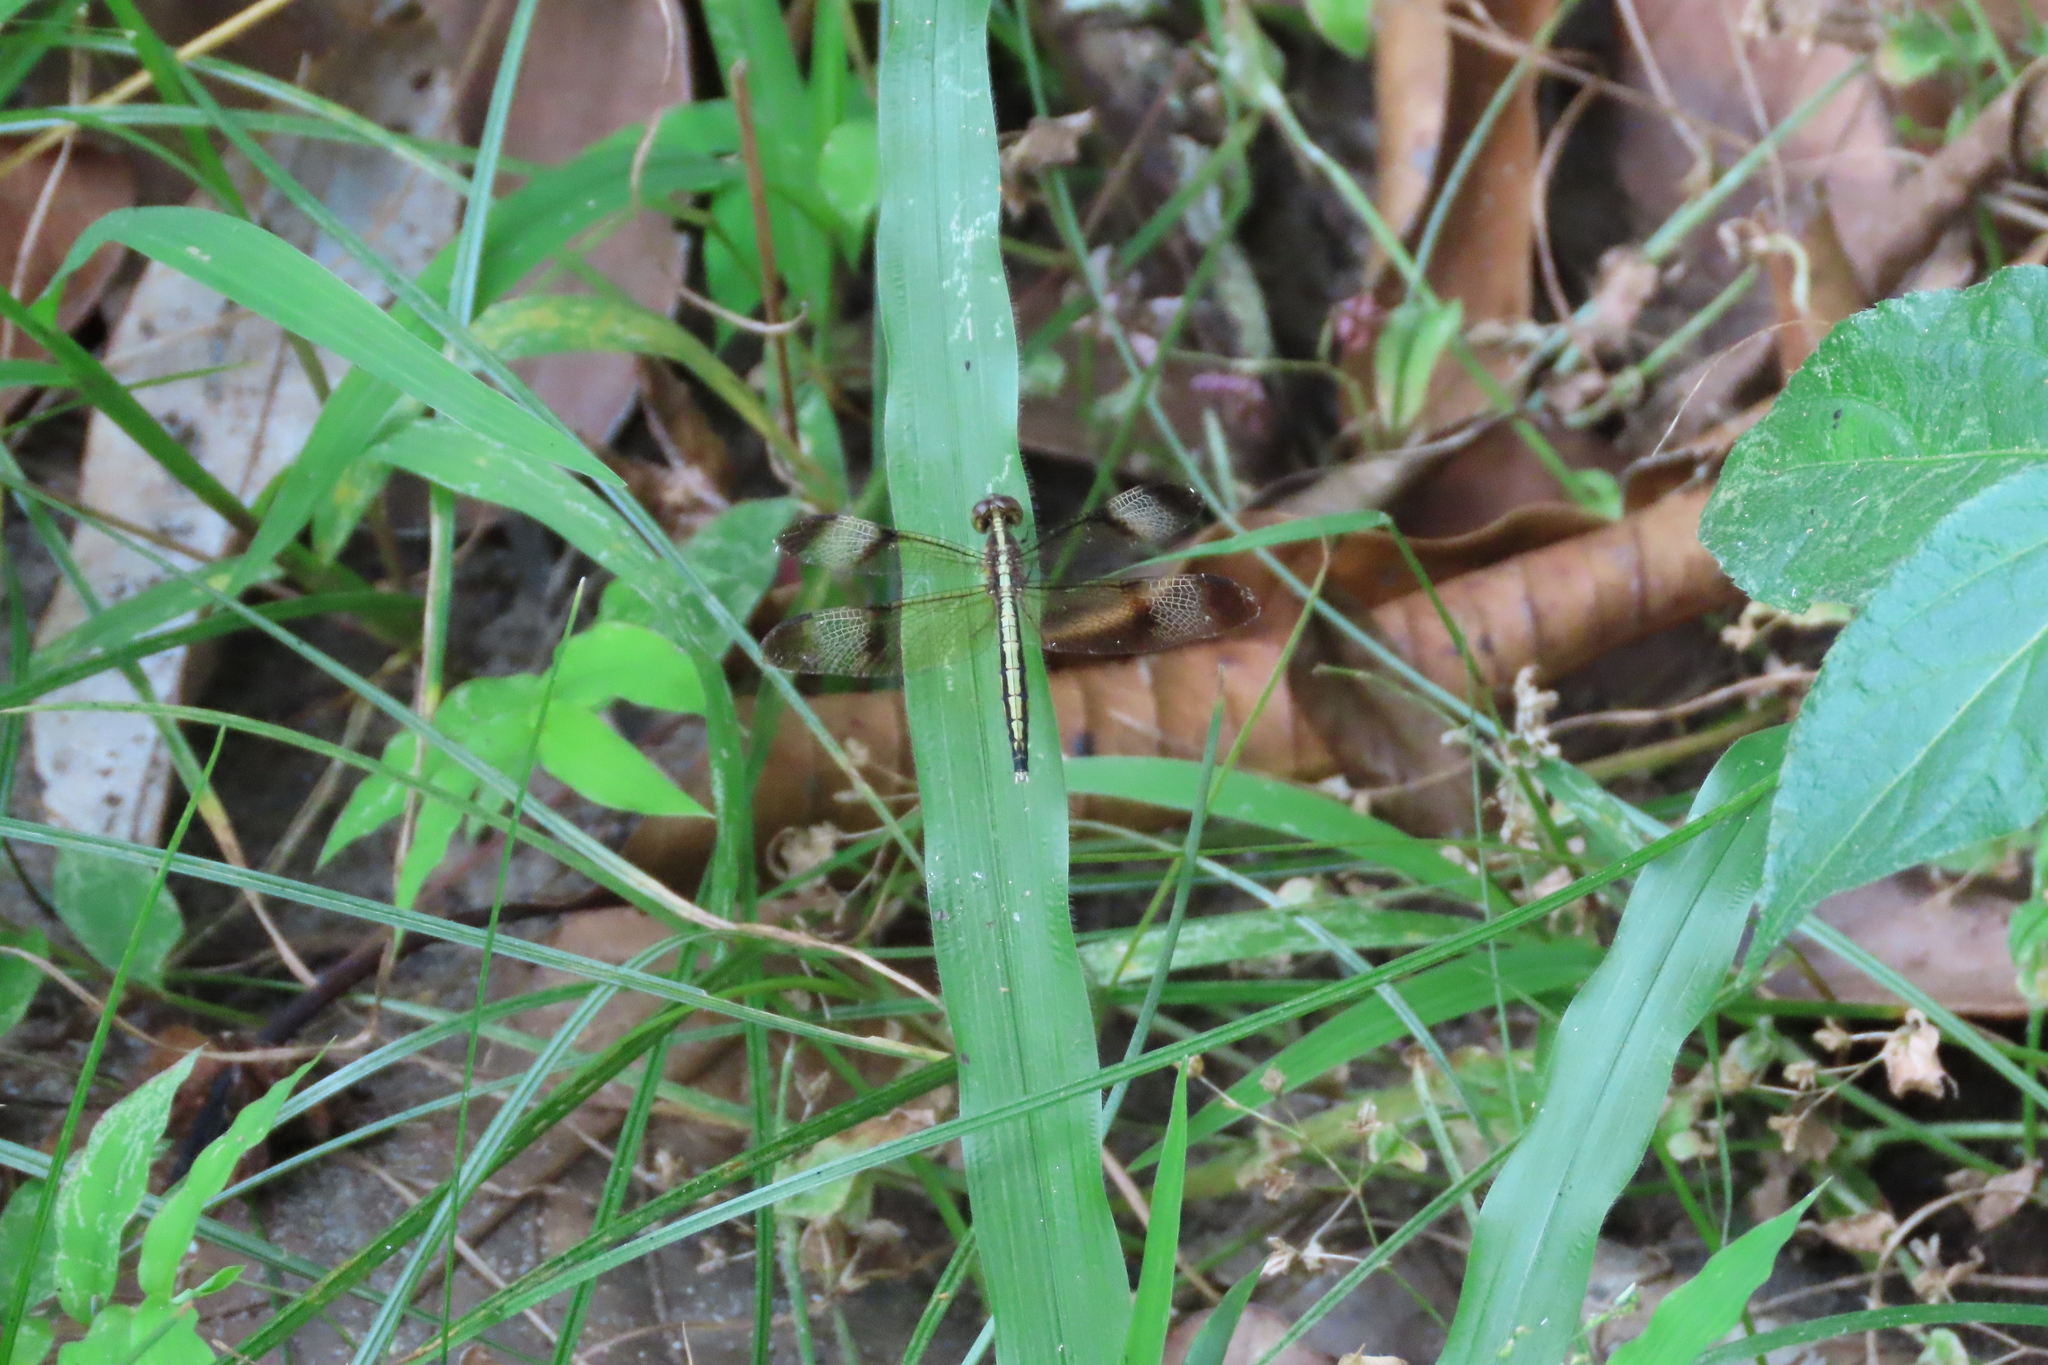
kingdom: Animalia
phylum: Arthropoda
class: Insecta
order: Odonata
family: Libellulidae
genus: Neurothemis
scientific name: Neurothemis tullia
